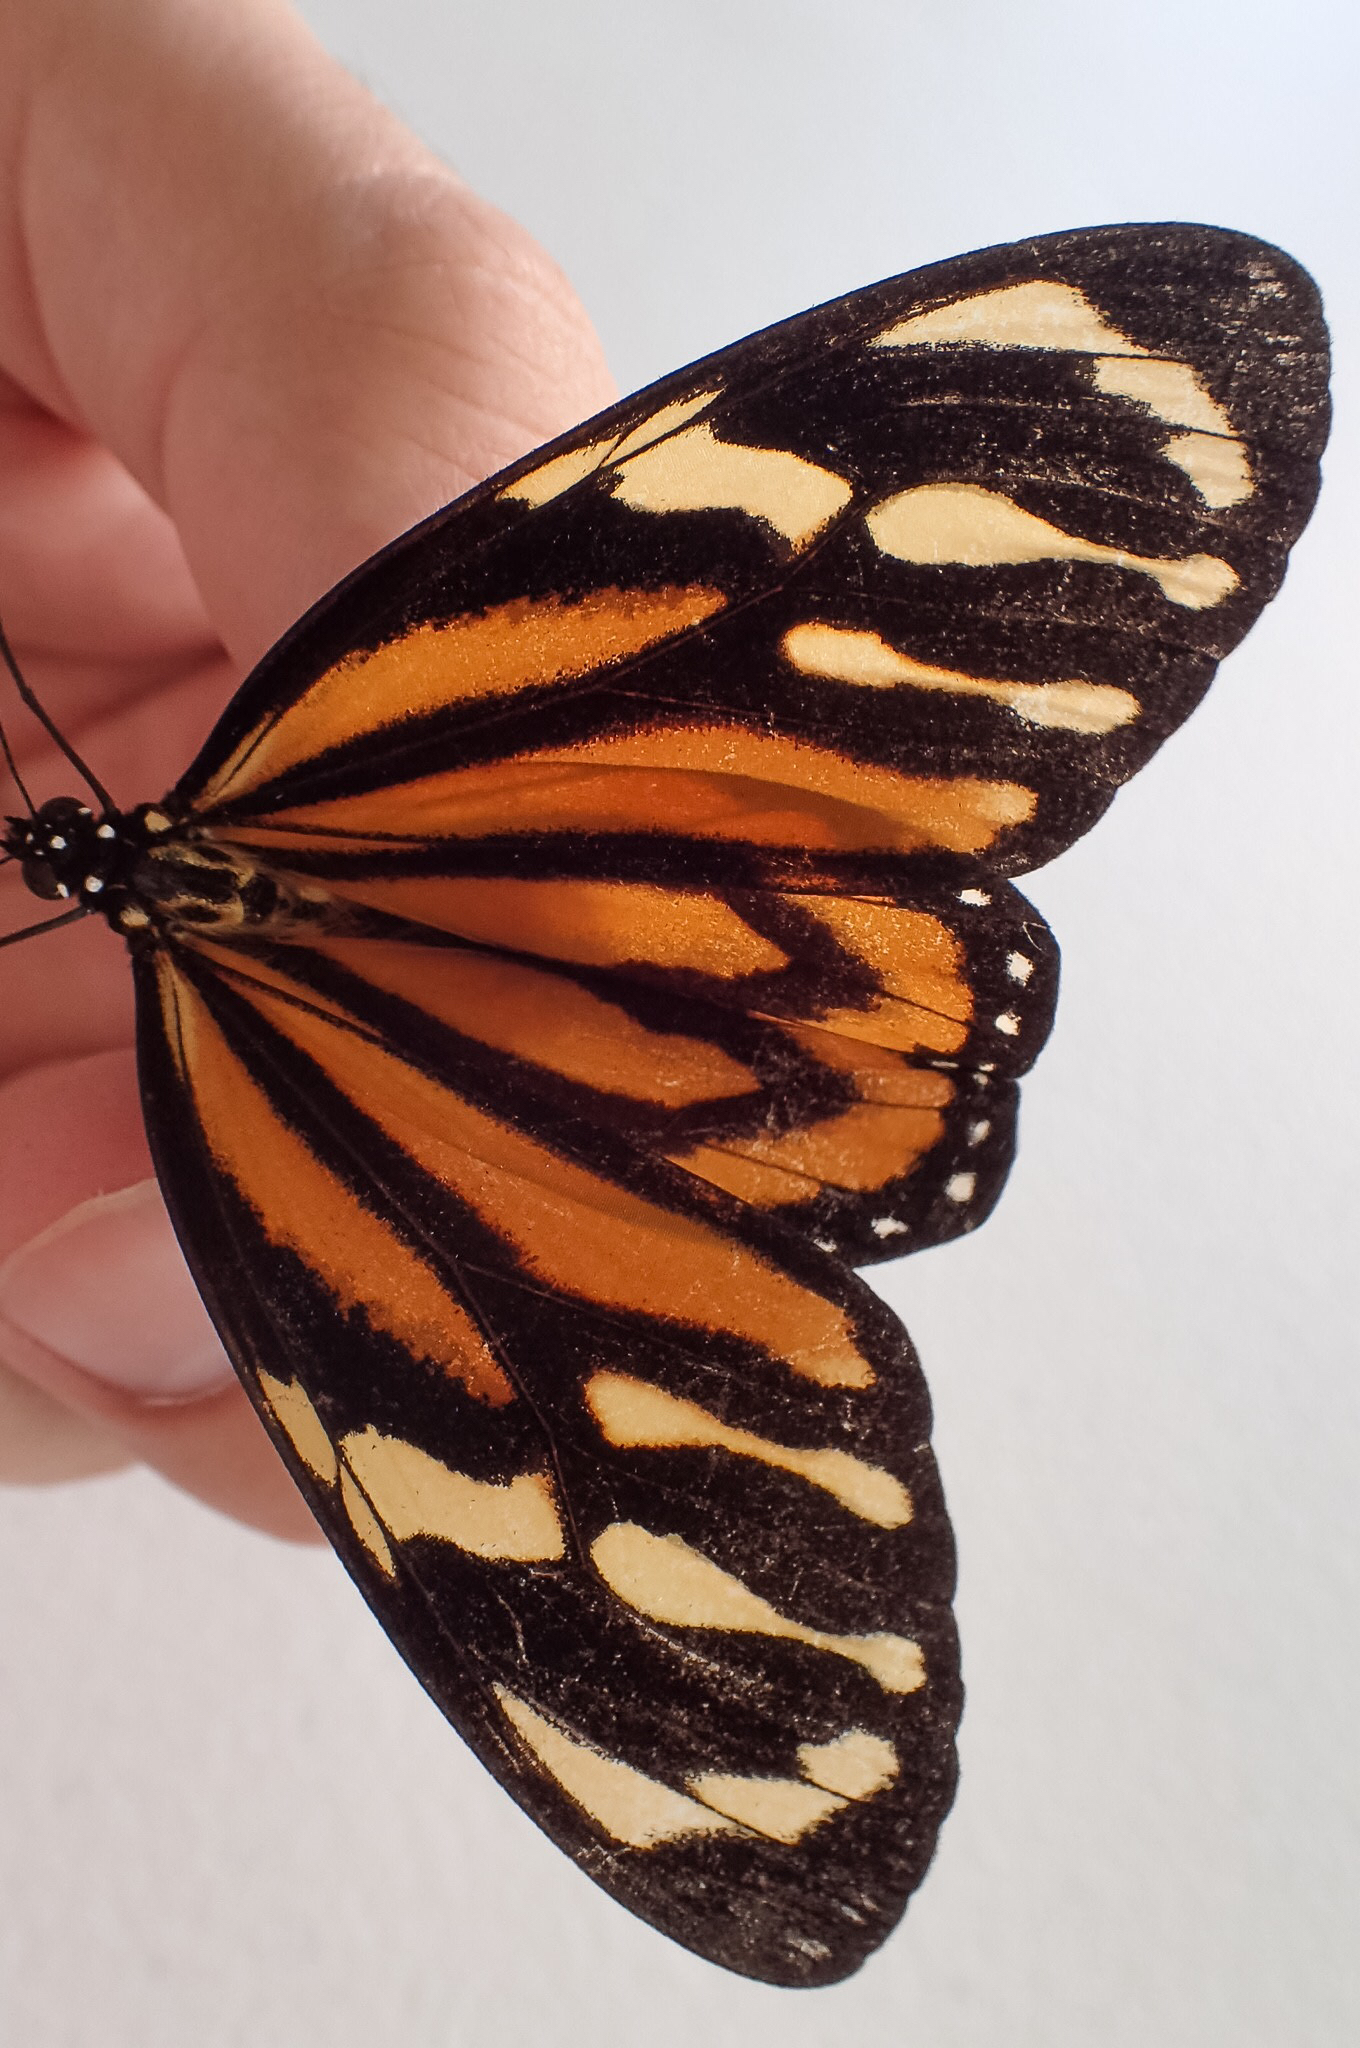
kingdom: Animalia
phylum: Arthropoda
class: Insecta
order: Lepidoptera
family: Nymphalidae
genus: Lycorea
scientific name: Lycorea cleobaea
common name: Tiger mimic-queen
